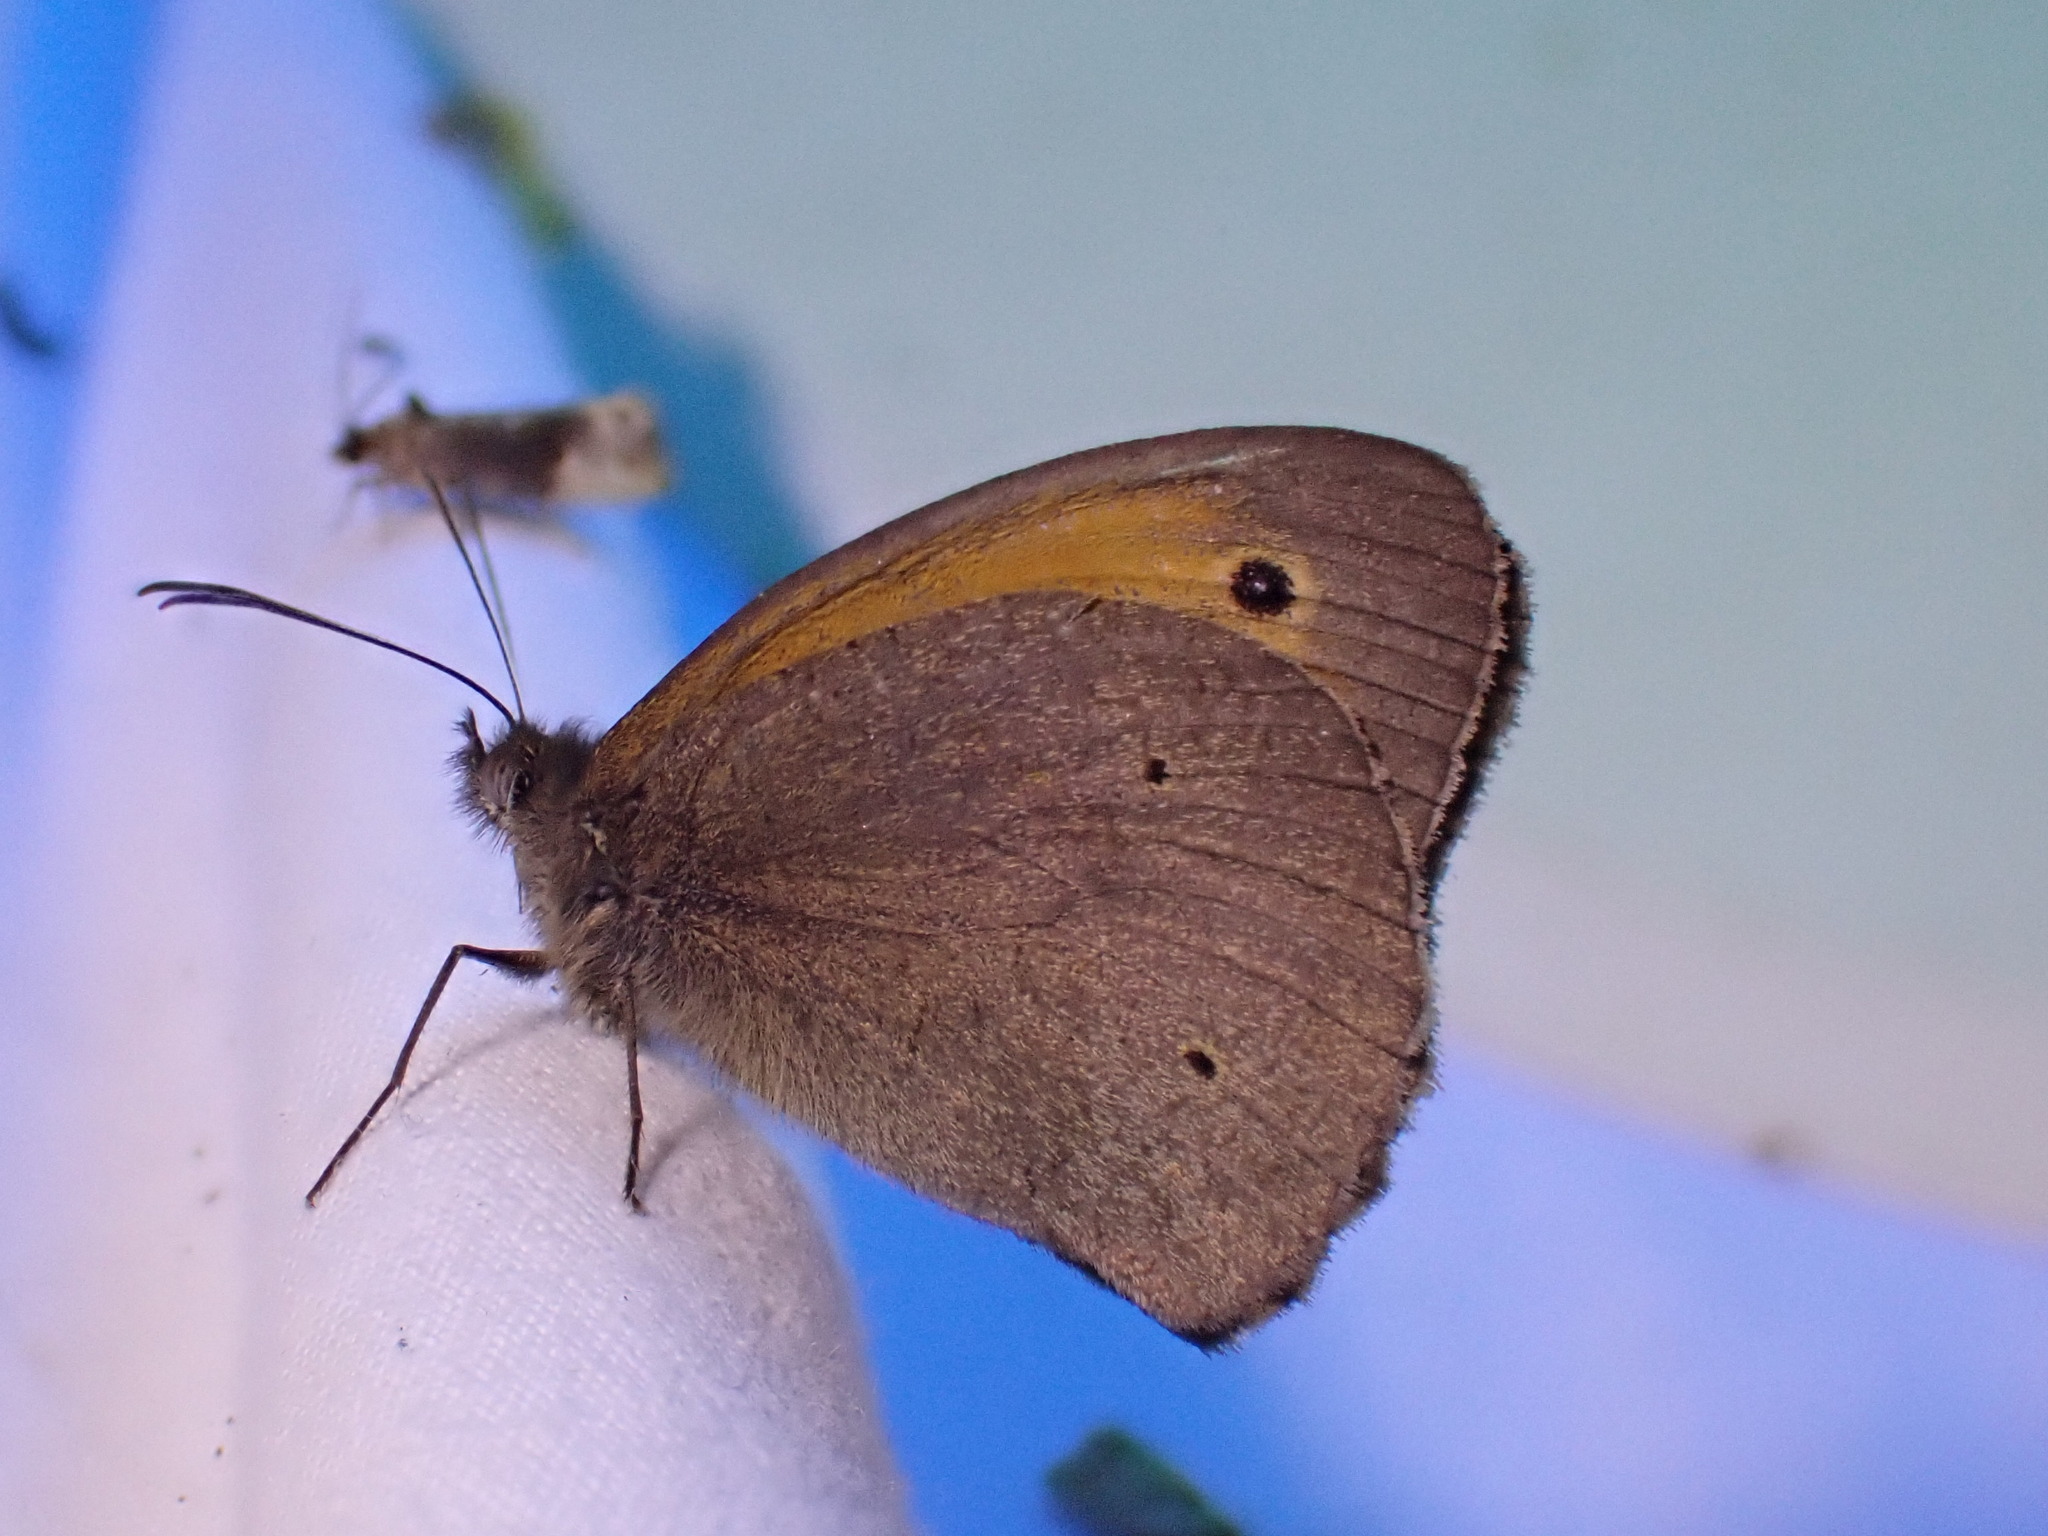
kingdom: Animalia
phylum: Arthropoda
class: Insecta
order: Lepidoptera
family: Nymphalidae
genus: Maniola
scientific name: Maniola jurtina
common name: Meadow brown
